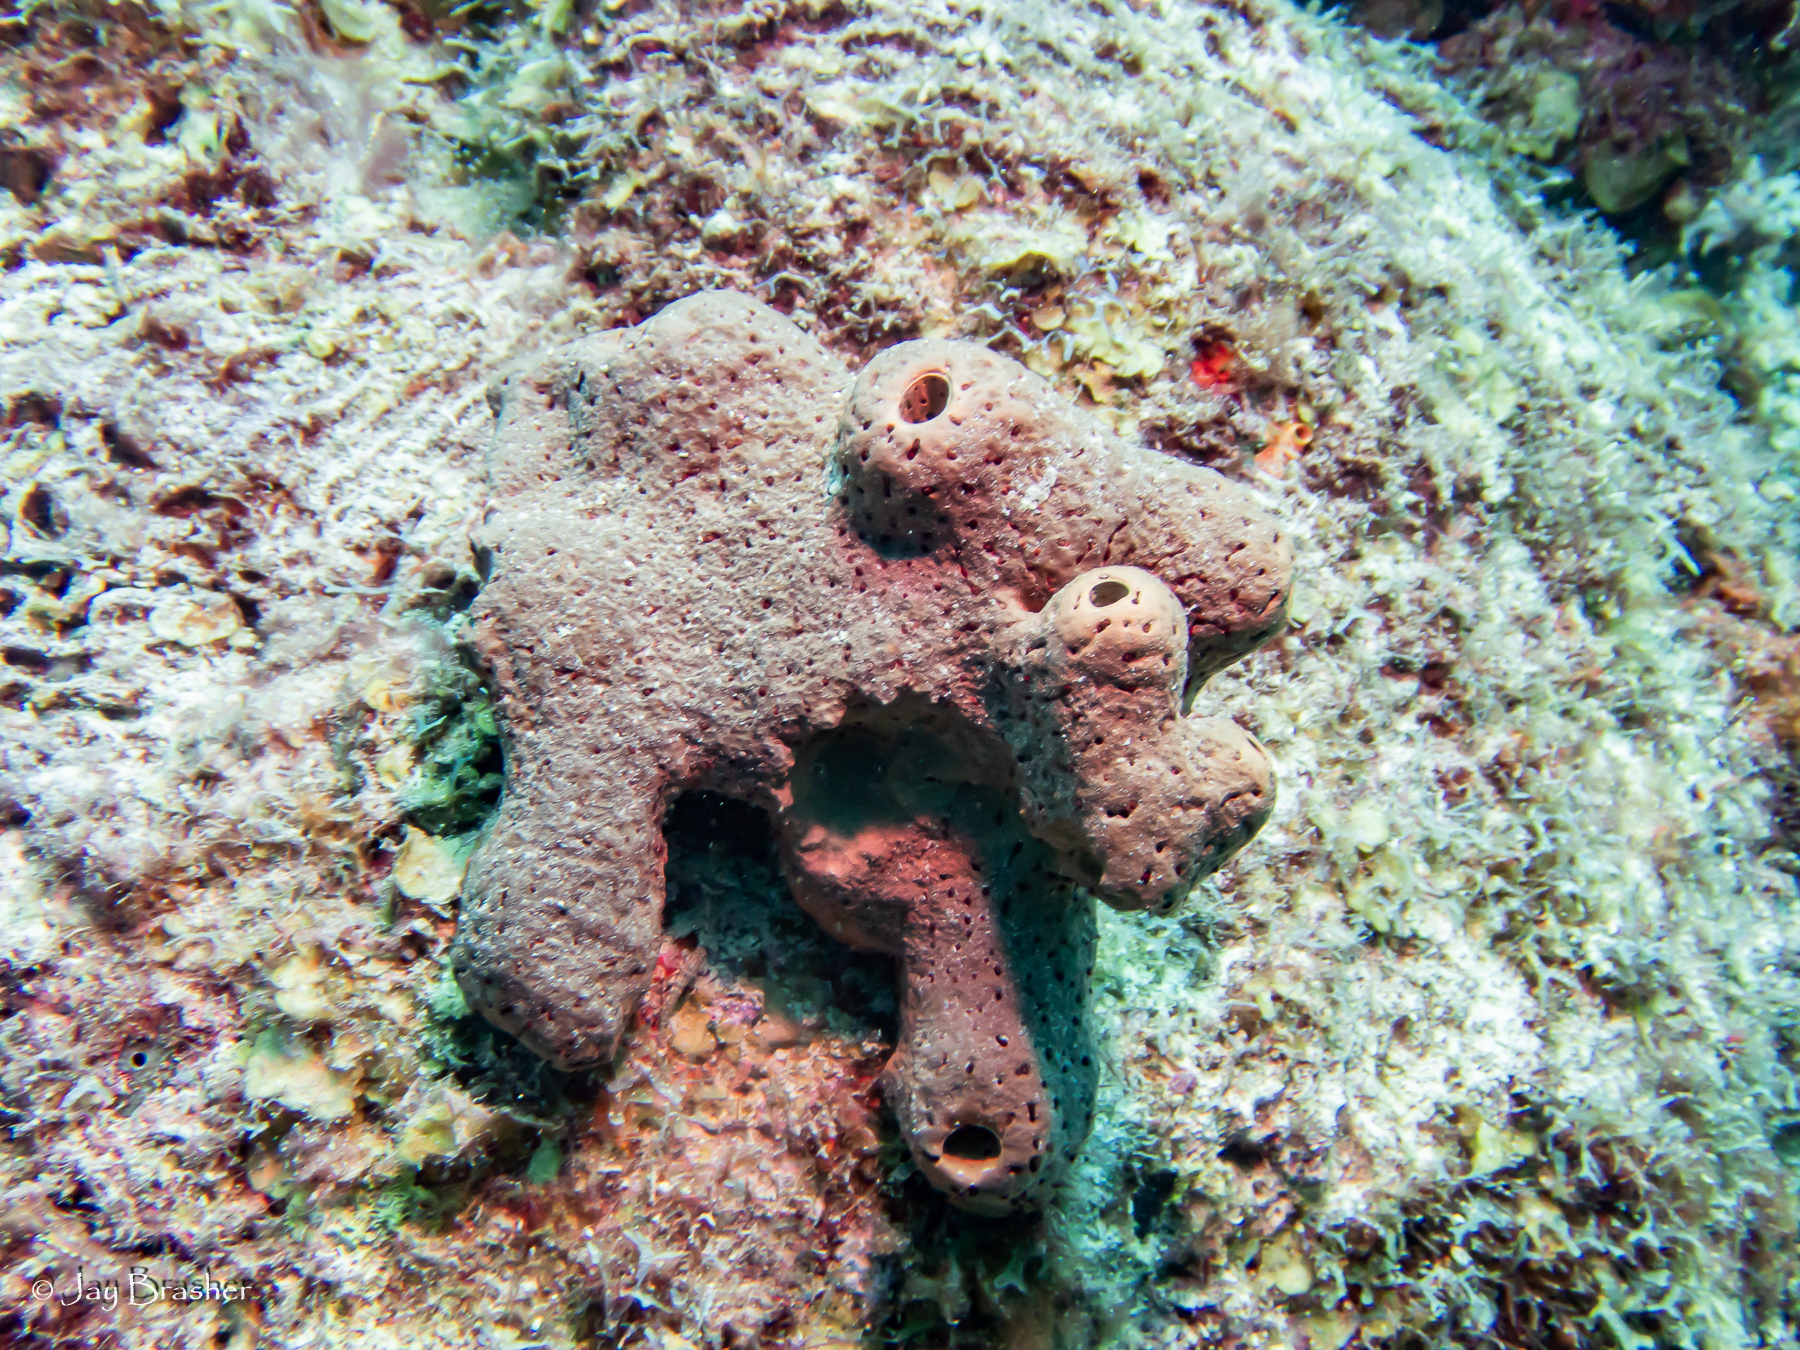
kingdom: Animalia
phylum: Porifera
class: Demospongiae
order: Agelasida
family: Agelasidae
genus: Agelas
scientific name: Agelas conifera
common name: Brown tube sponge
